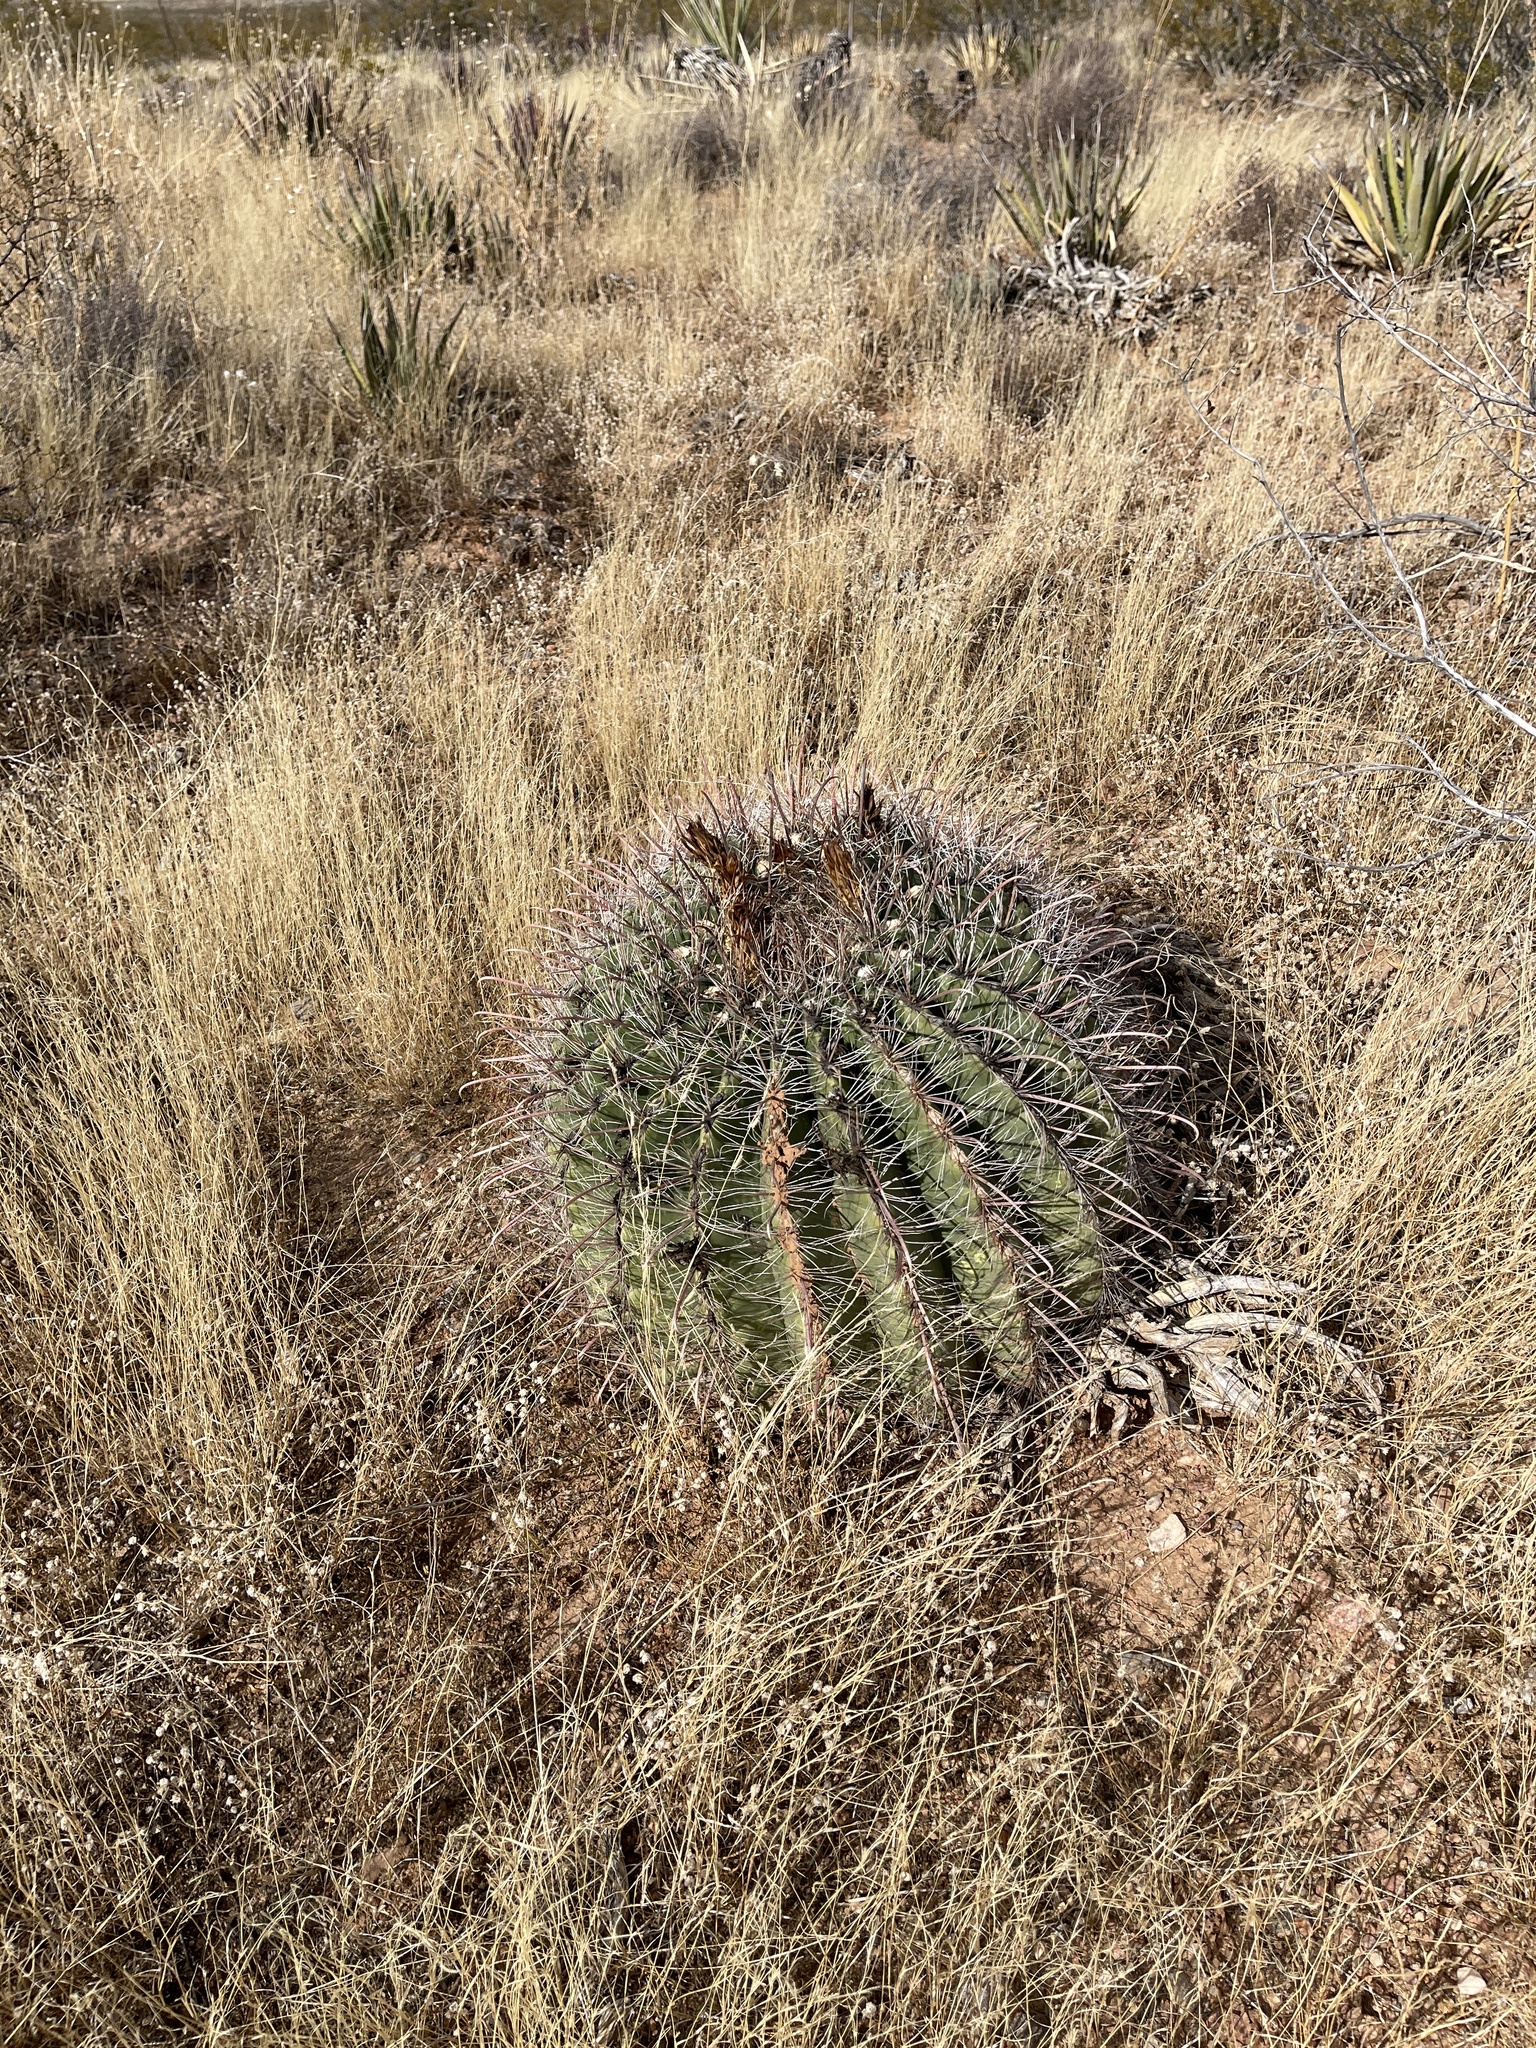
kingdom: Plantae
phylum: Tracheophyta
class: Magnoliopsida
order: Caryophyllales
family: Cactaceae
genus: Ferocactus
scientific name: Ferocactus wislizeni
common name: Candy barrel cactus
